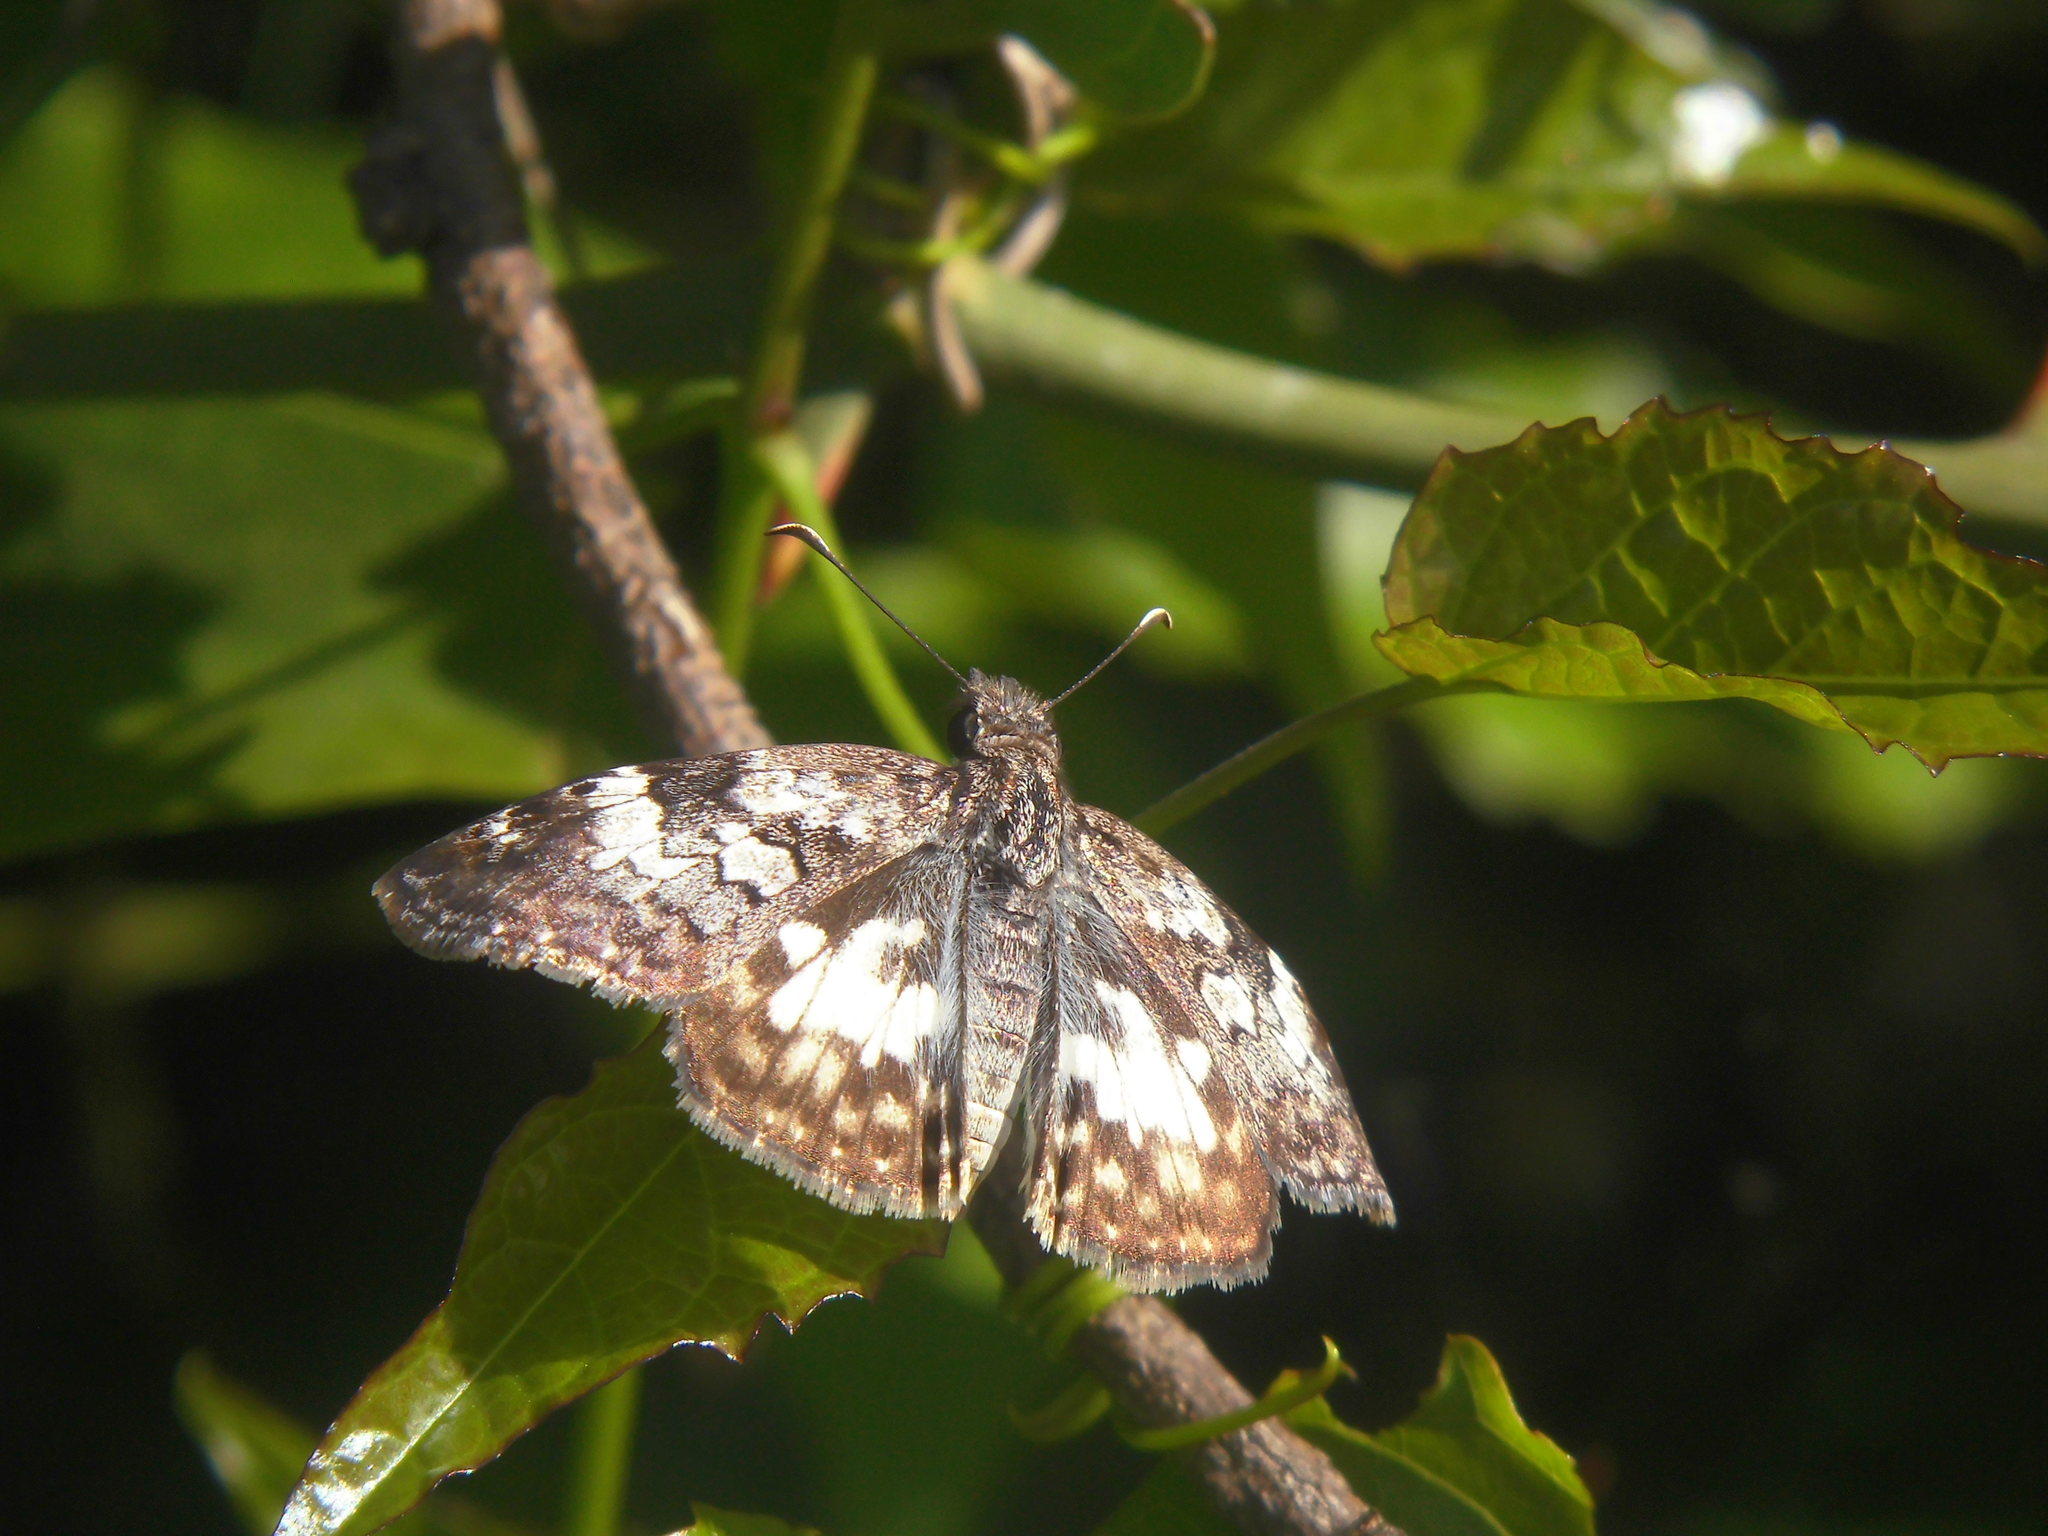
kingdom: Animalia
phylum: Arthropoda
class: Insecta
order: Lepidoptera
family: Hesperiidae
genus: Chiomara
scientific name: Chiomara asychis
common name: White-patterned skipper
